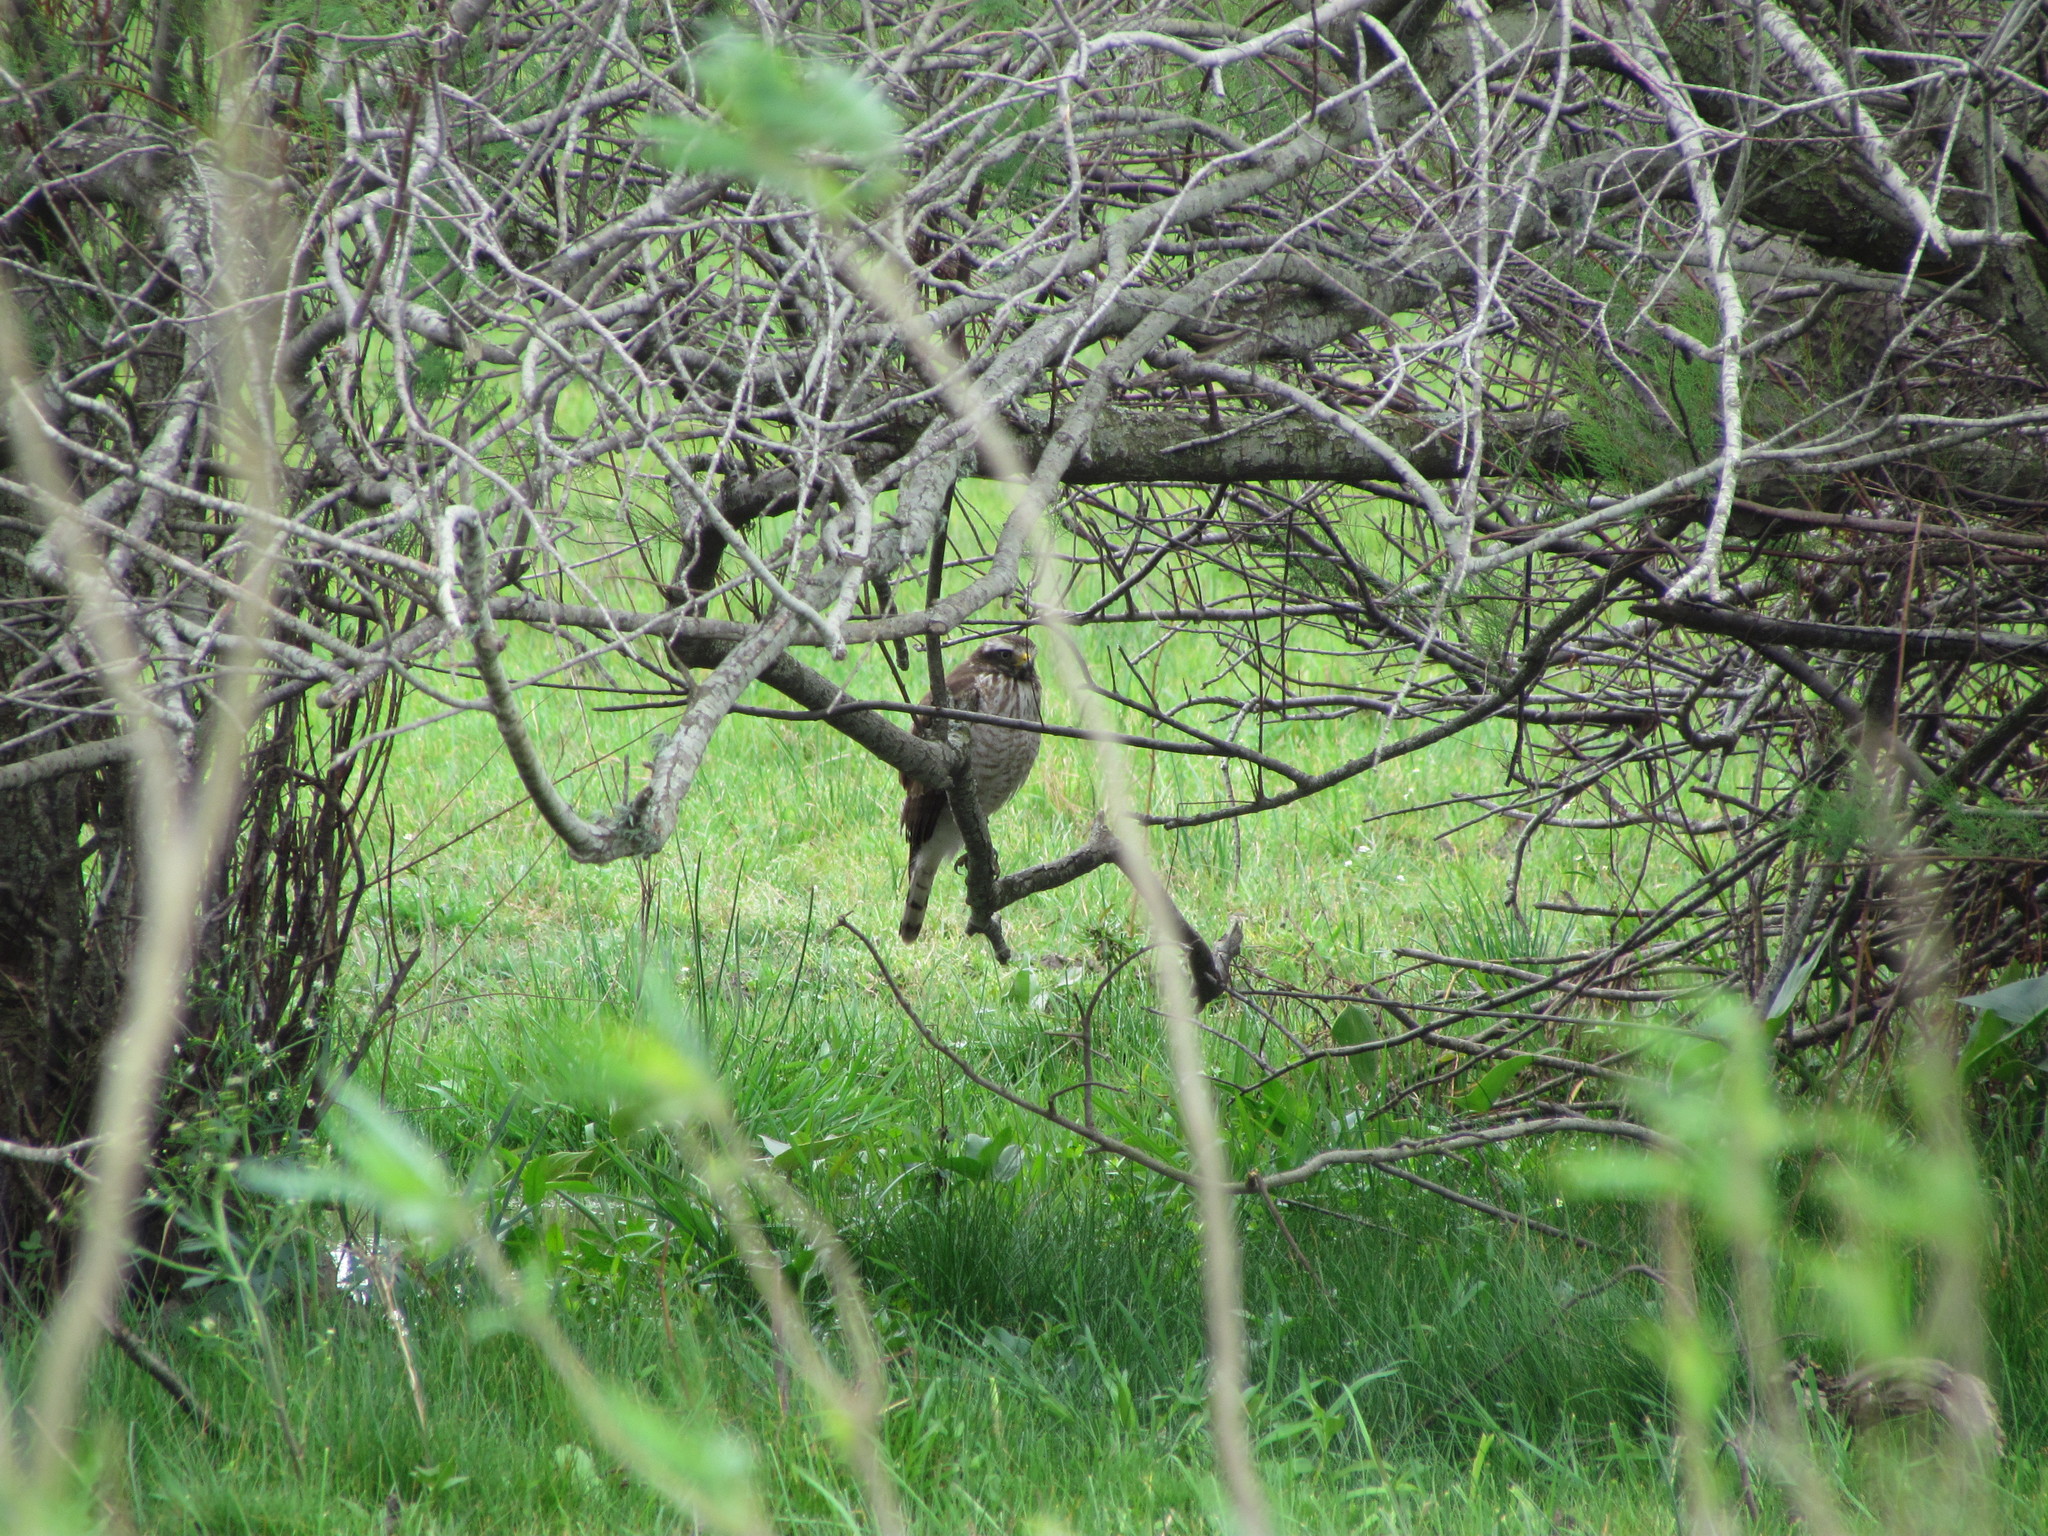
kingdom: Animalia
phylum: Chordata
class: Aves
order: Accipitriformes
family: Accipitridae
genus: Rupornis
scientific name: Rupornis magnirostris
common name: Roadside hawk
